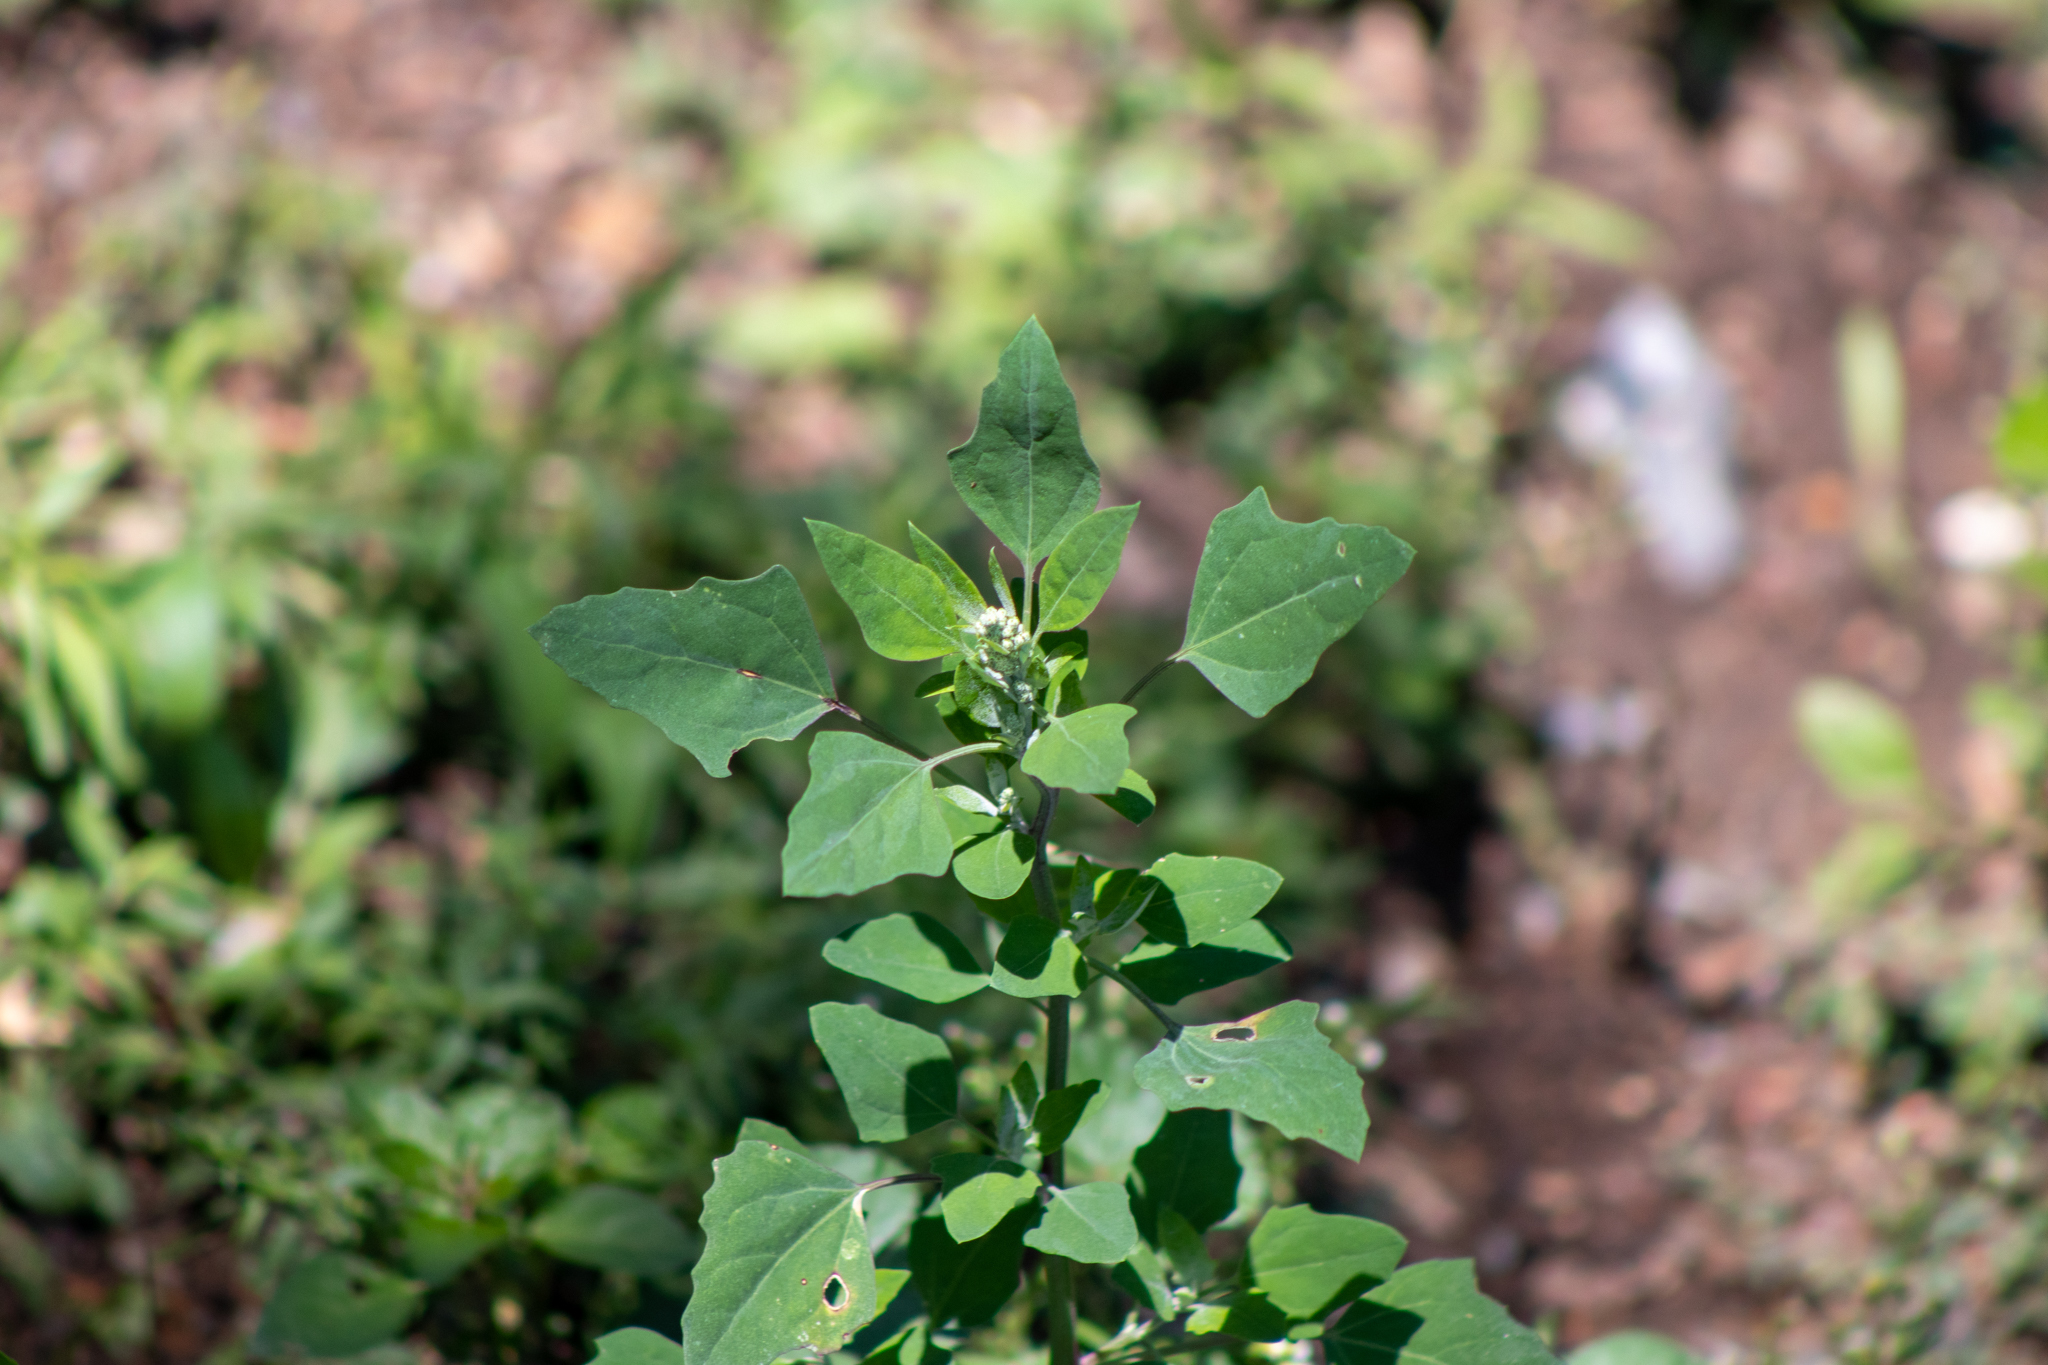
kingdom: Plantae
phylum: Tracheophyta
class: Magnoliopsida
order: Caryophyllales
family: Amaranthaceae
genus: Chenopodium
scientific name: Chenopodium album
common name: Fat-hen
